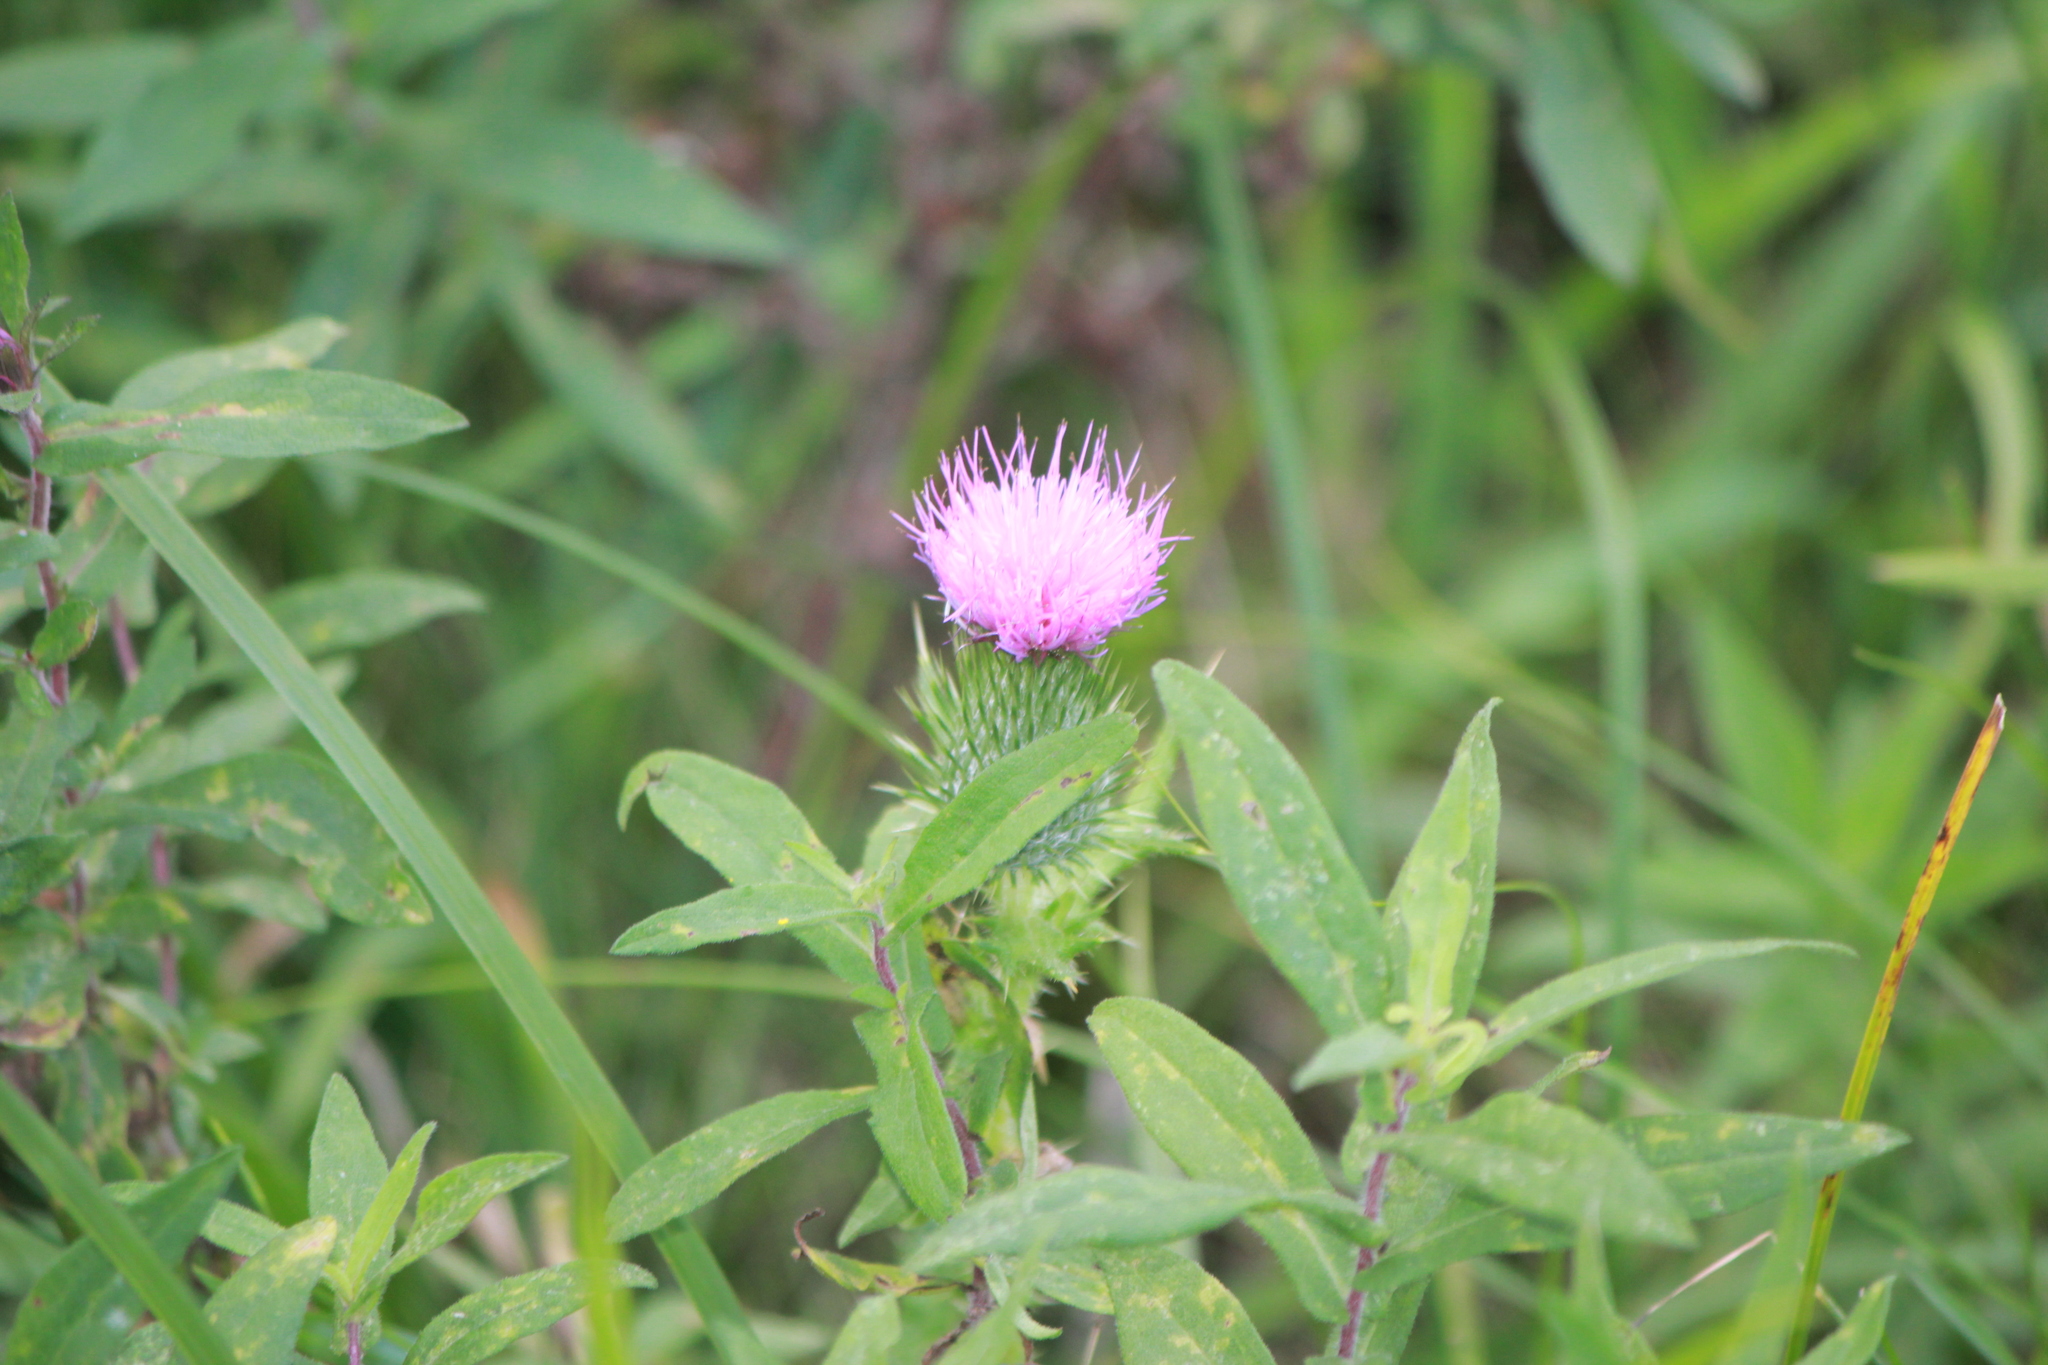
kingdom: Plantae
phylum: Tracheophyta
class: Magnoliopsida
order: Asterales
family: Asteraceae
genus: Cirsium
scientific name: Cirsium vulgare
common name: Bull thistle
